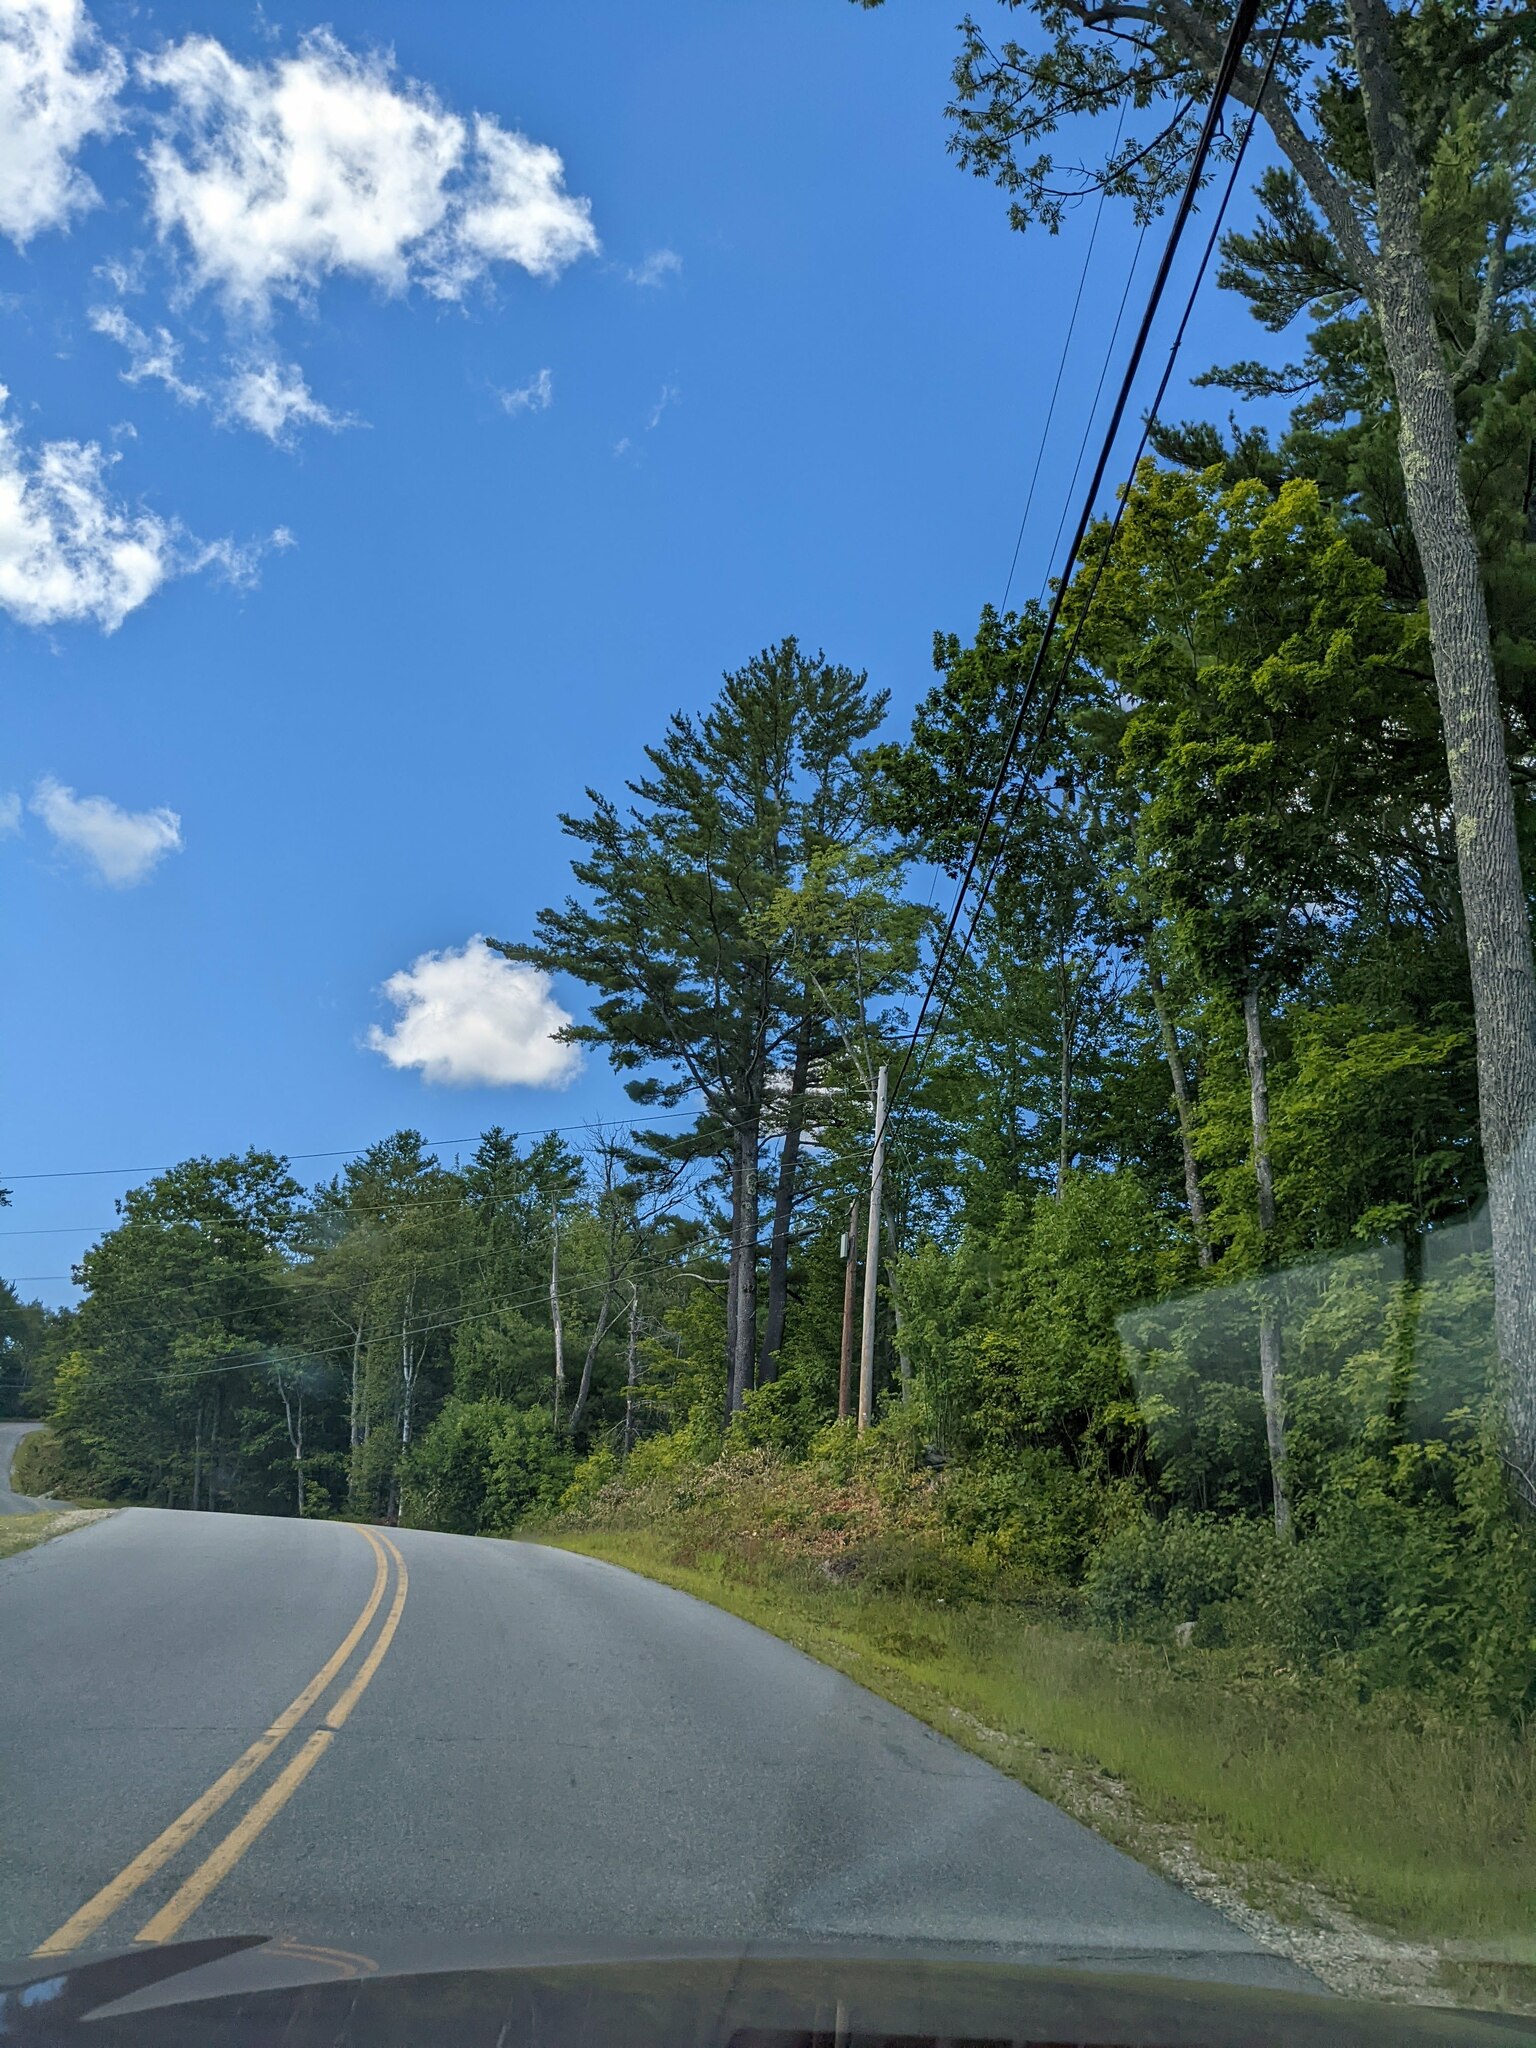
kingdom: Plantae
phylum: Tracheophyta
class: Pinopsida
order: Pinales
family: Pinaceae
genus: Pinus
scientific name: Pinus strobus
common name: Weymouth pine
